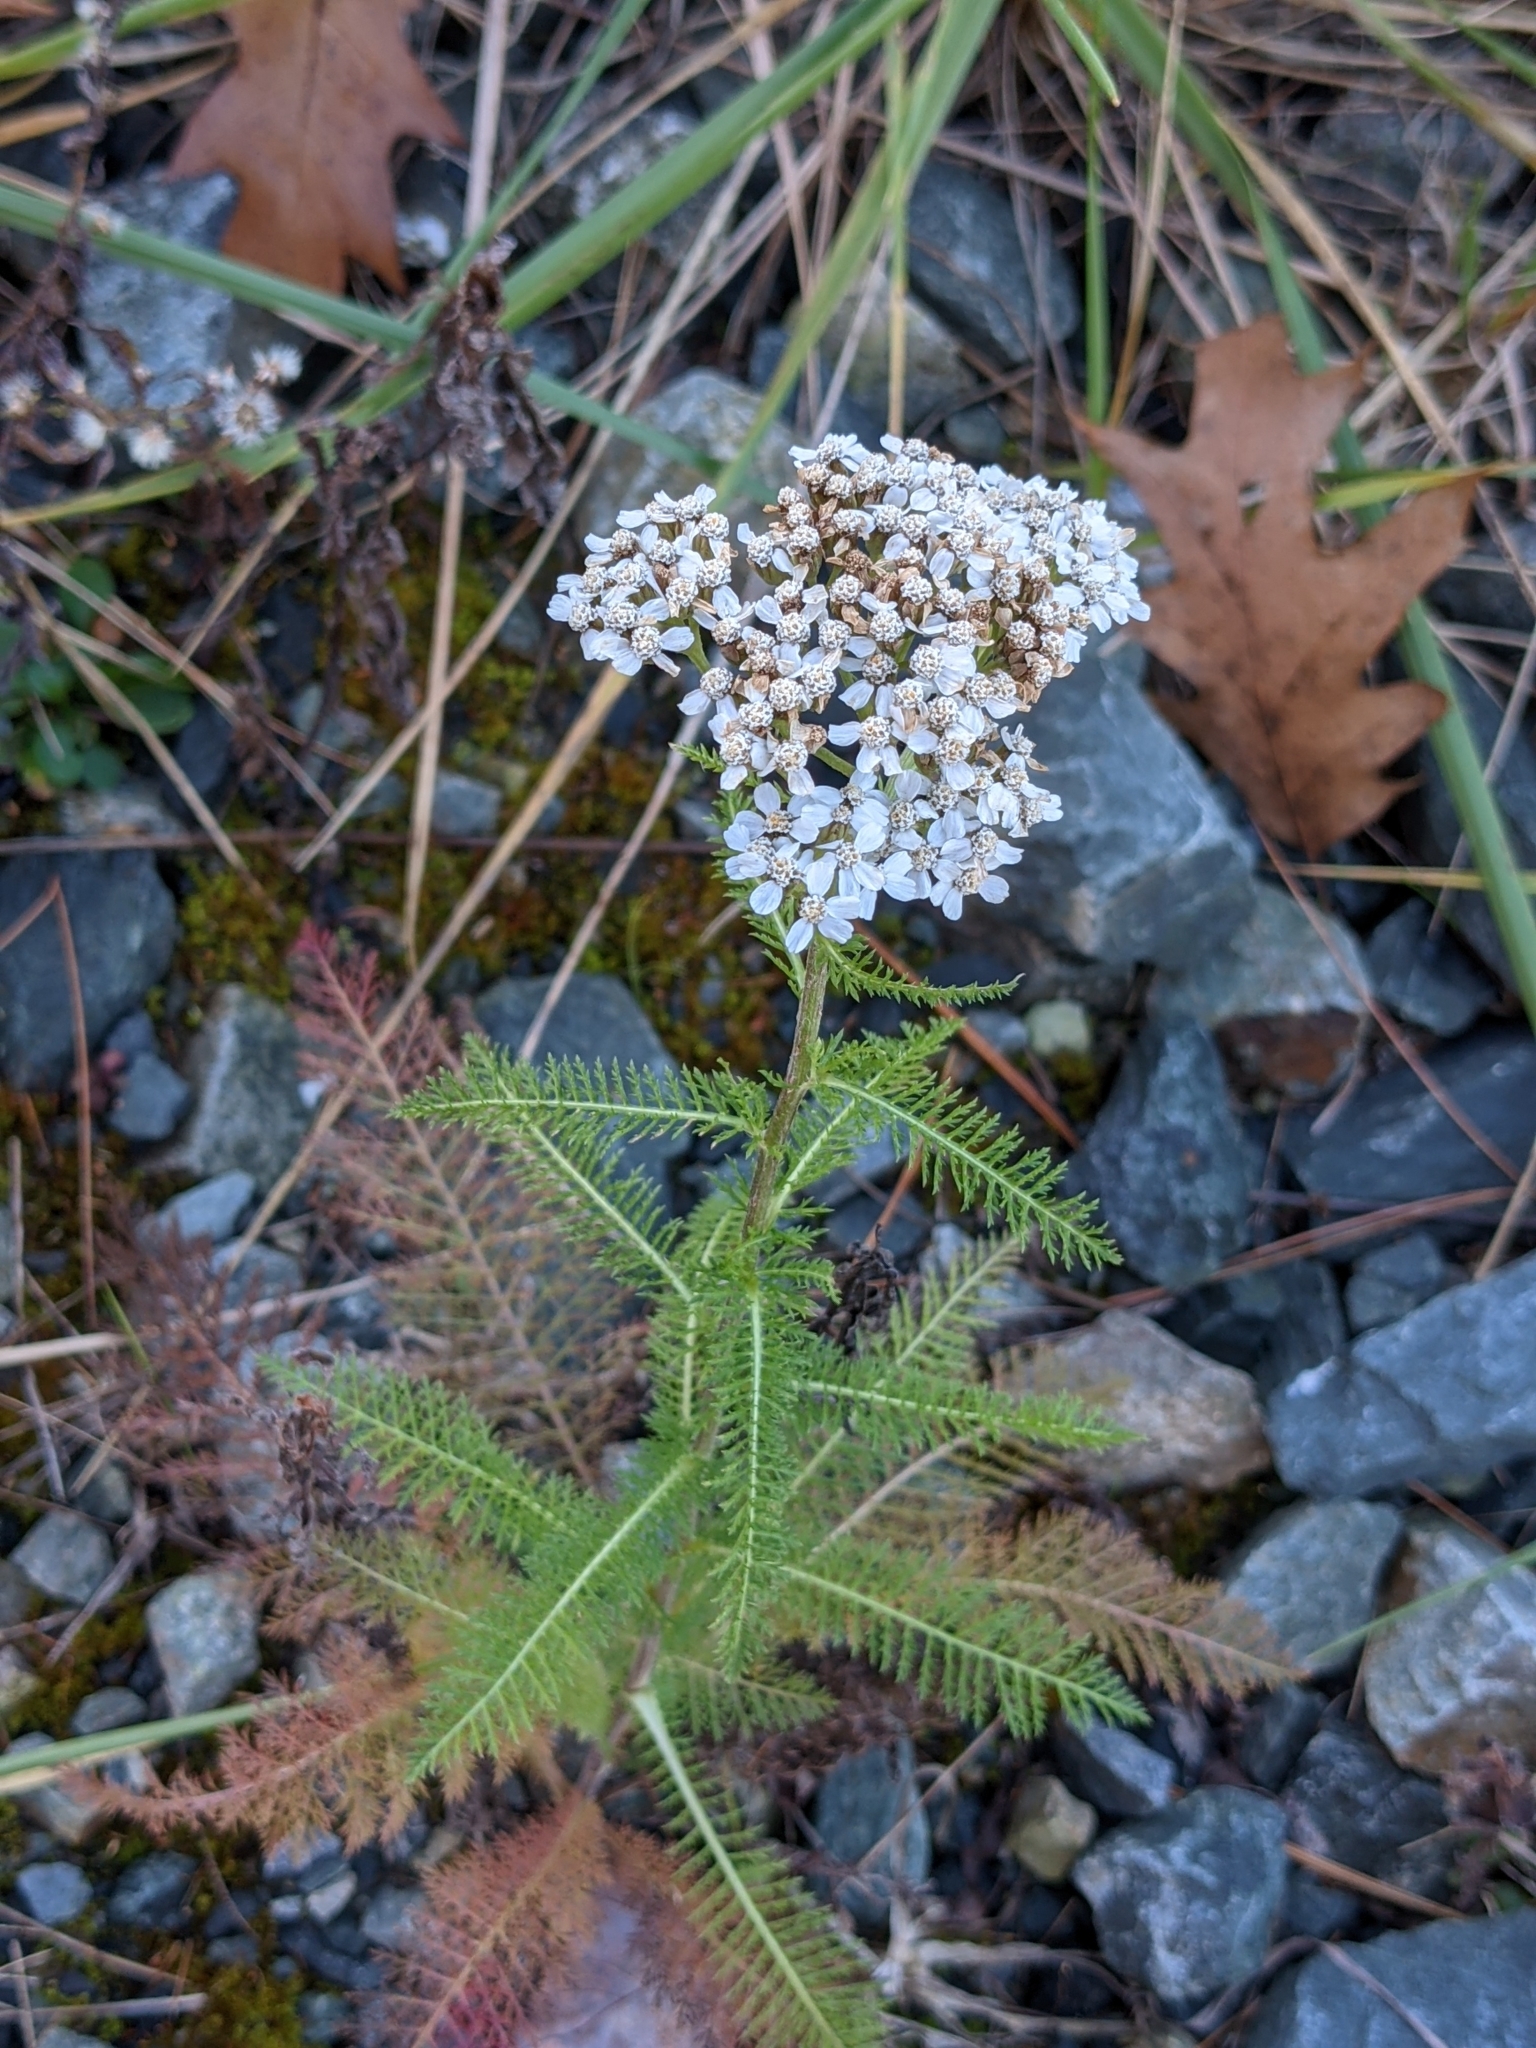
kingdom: Plantae
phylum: Tracheophyta
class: Magnoliopsida
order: Asterales
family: Asteraceae
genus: Achillea
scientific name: Achillea millefolium
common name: Yarrow
